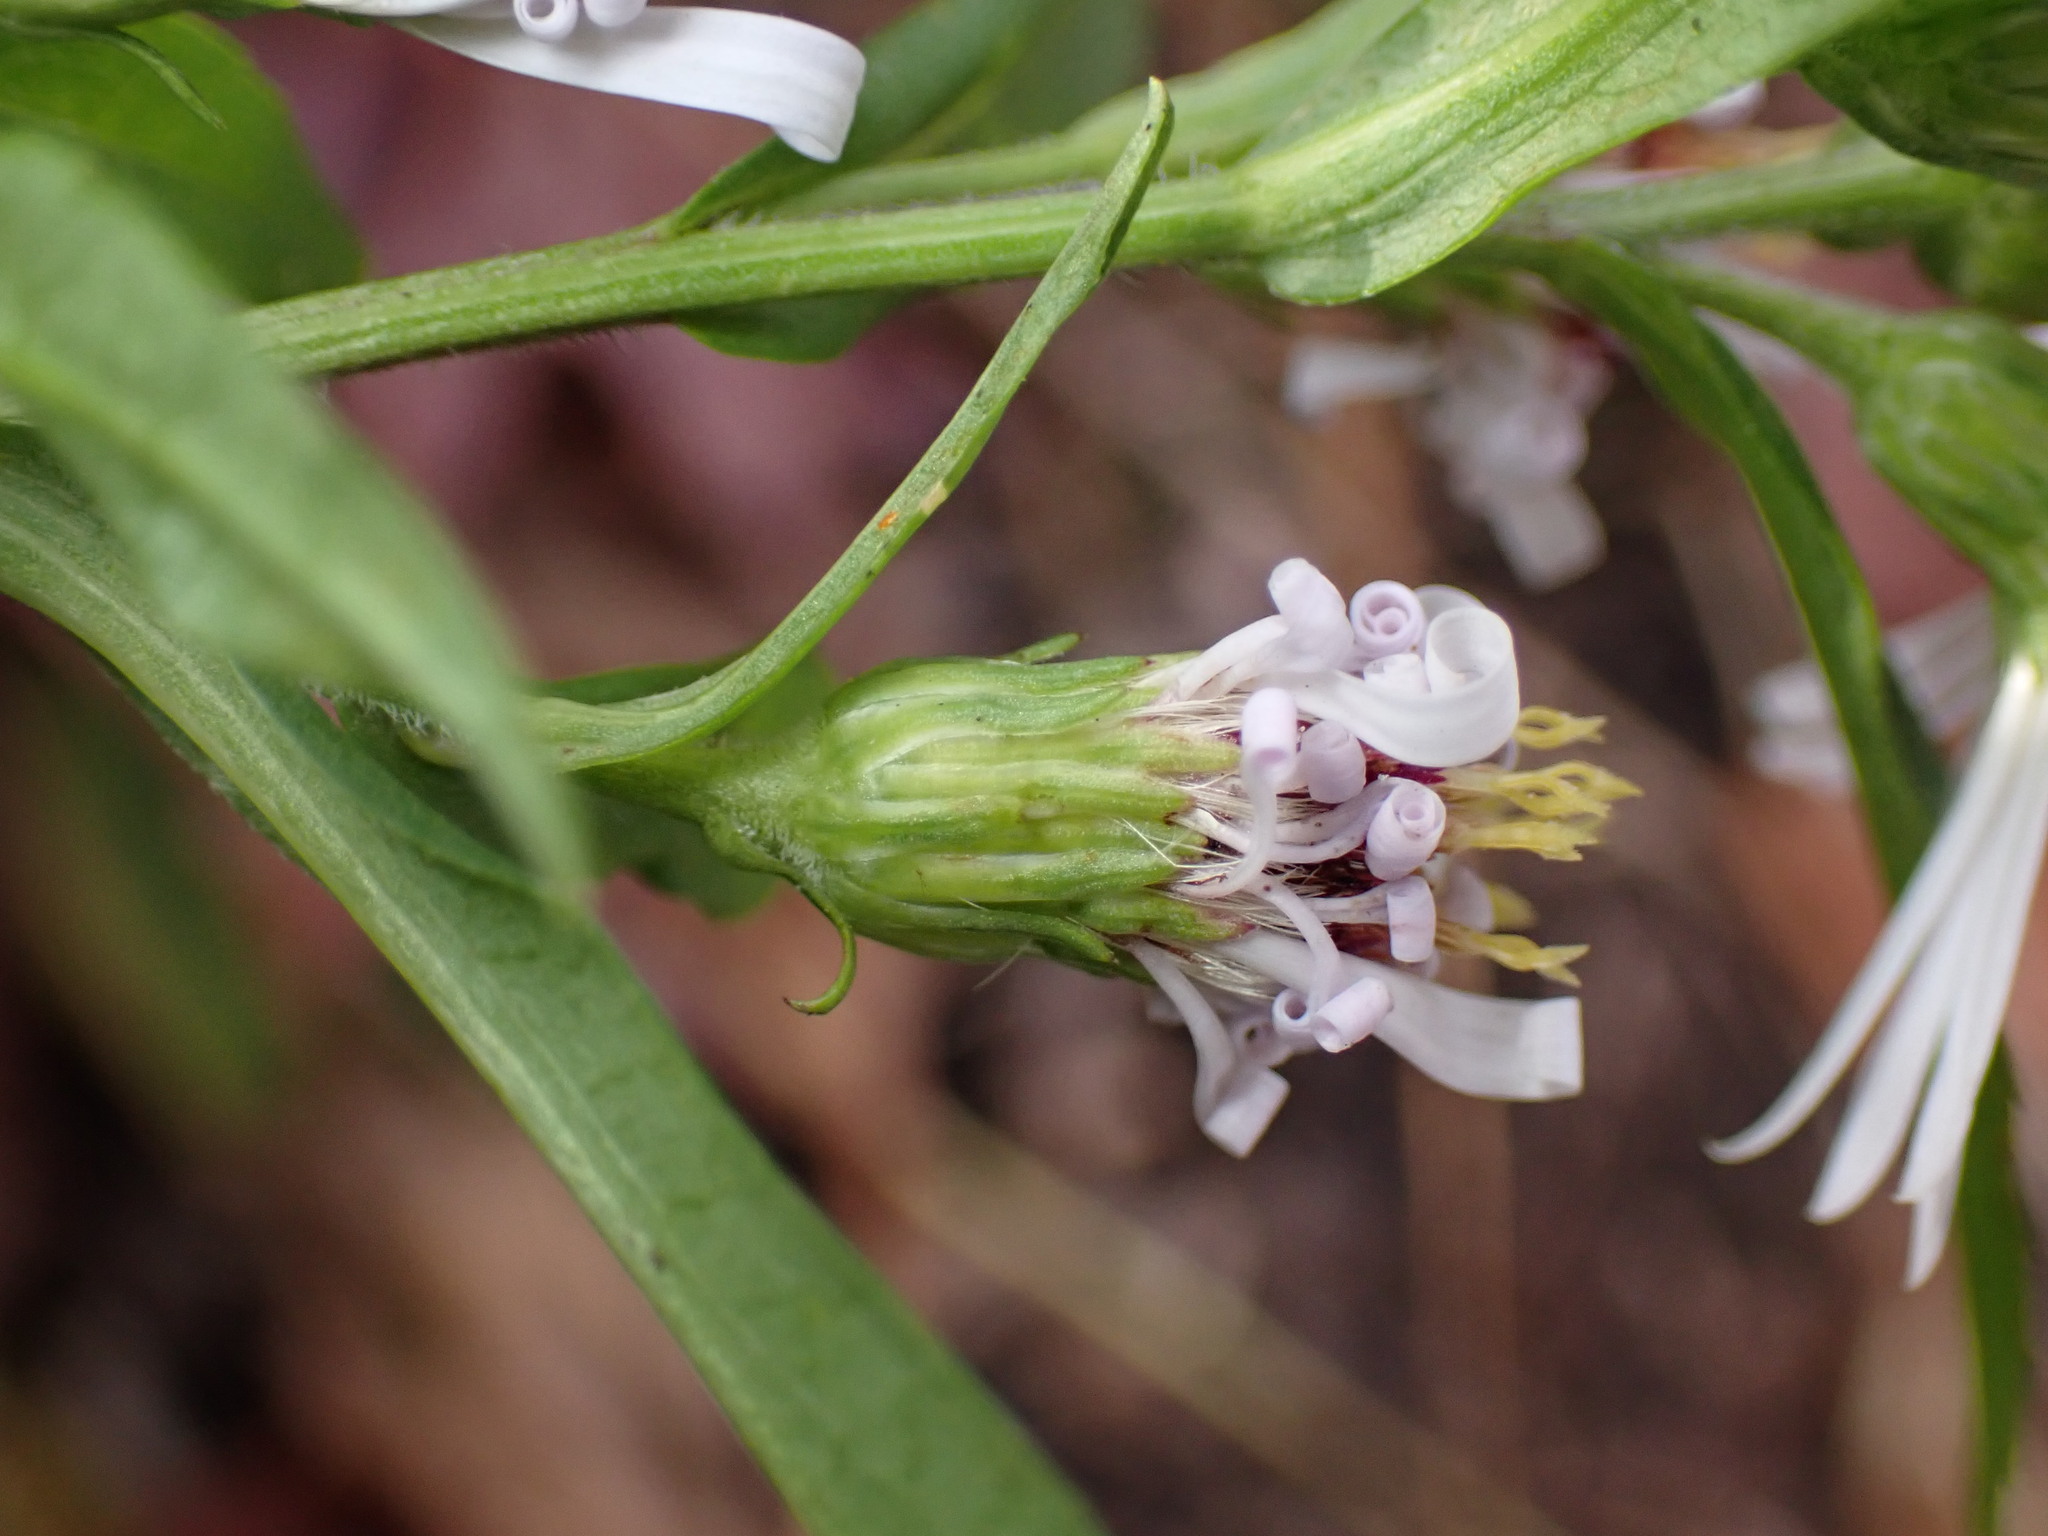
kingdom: Plantae
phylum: Tracheophyta
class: Magnoliopsida
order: Asterales
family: Asteraceae
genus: Symphyotrichum
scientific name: Symphyotrichum lanceolatum
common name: Panicled aster
